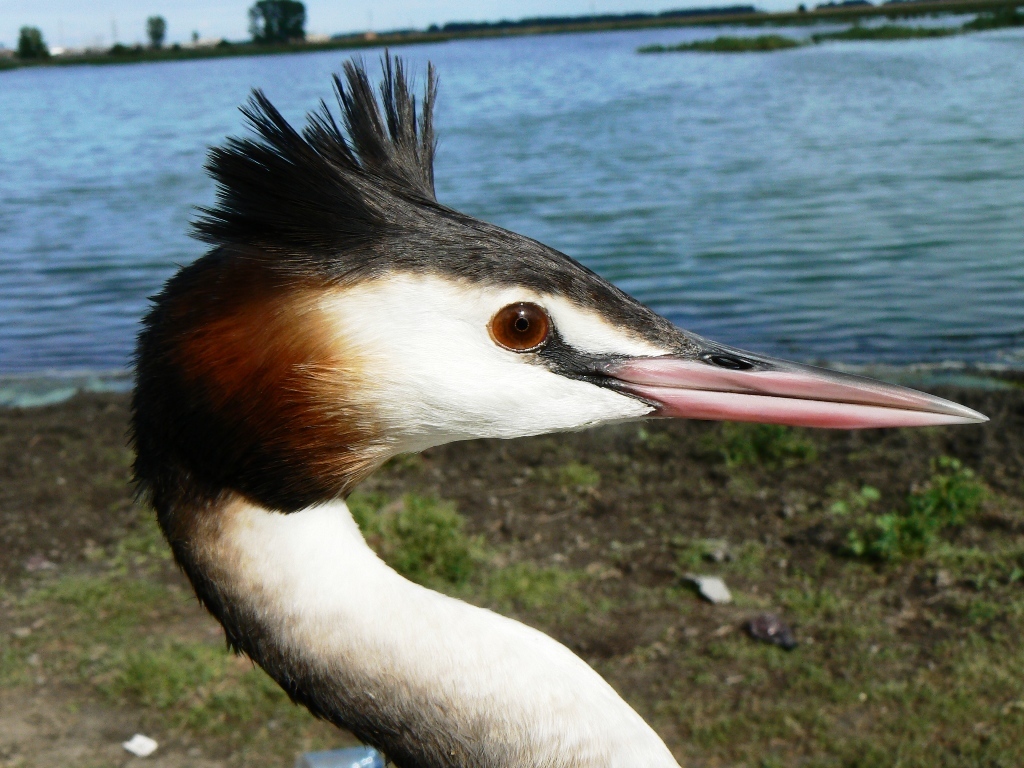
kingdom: Animalia
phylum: Chordata
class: Aves
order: Podicipediformes
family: Podicipedidae
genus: Podiceps
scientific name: Podiceps cristatus
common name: Great crested grebe
